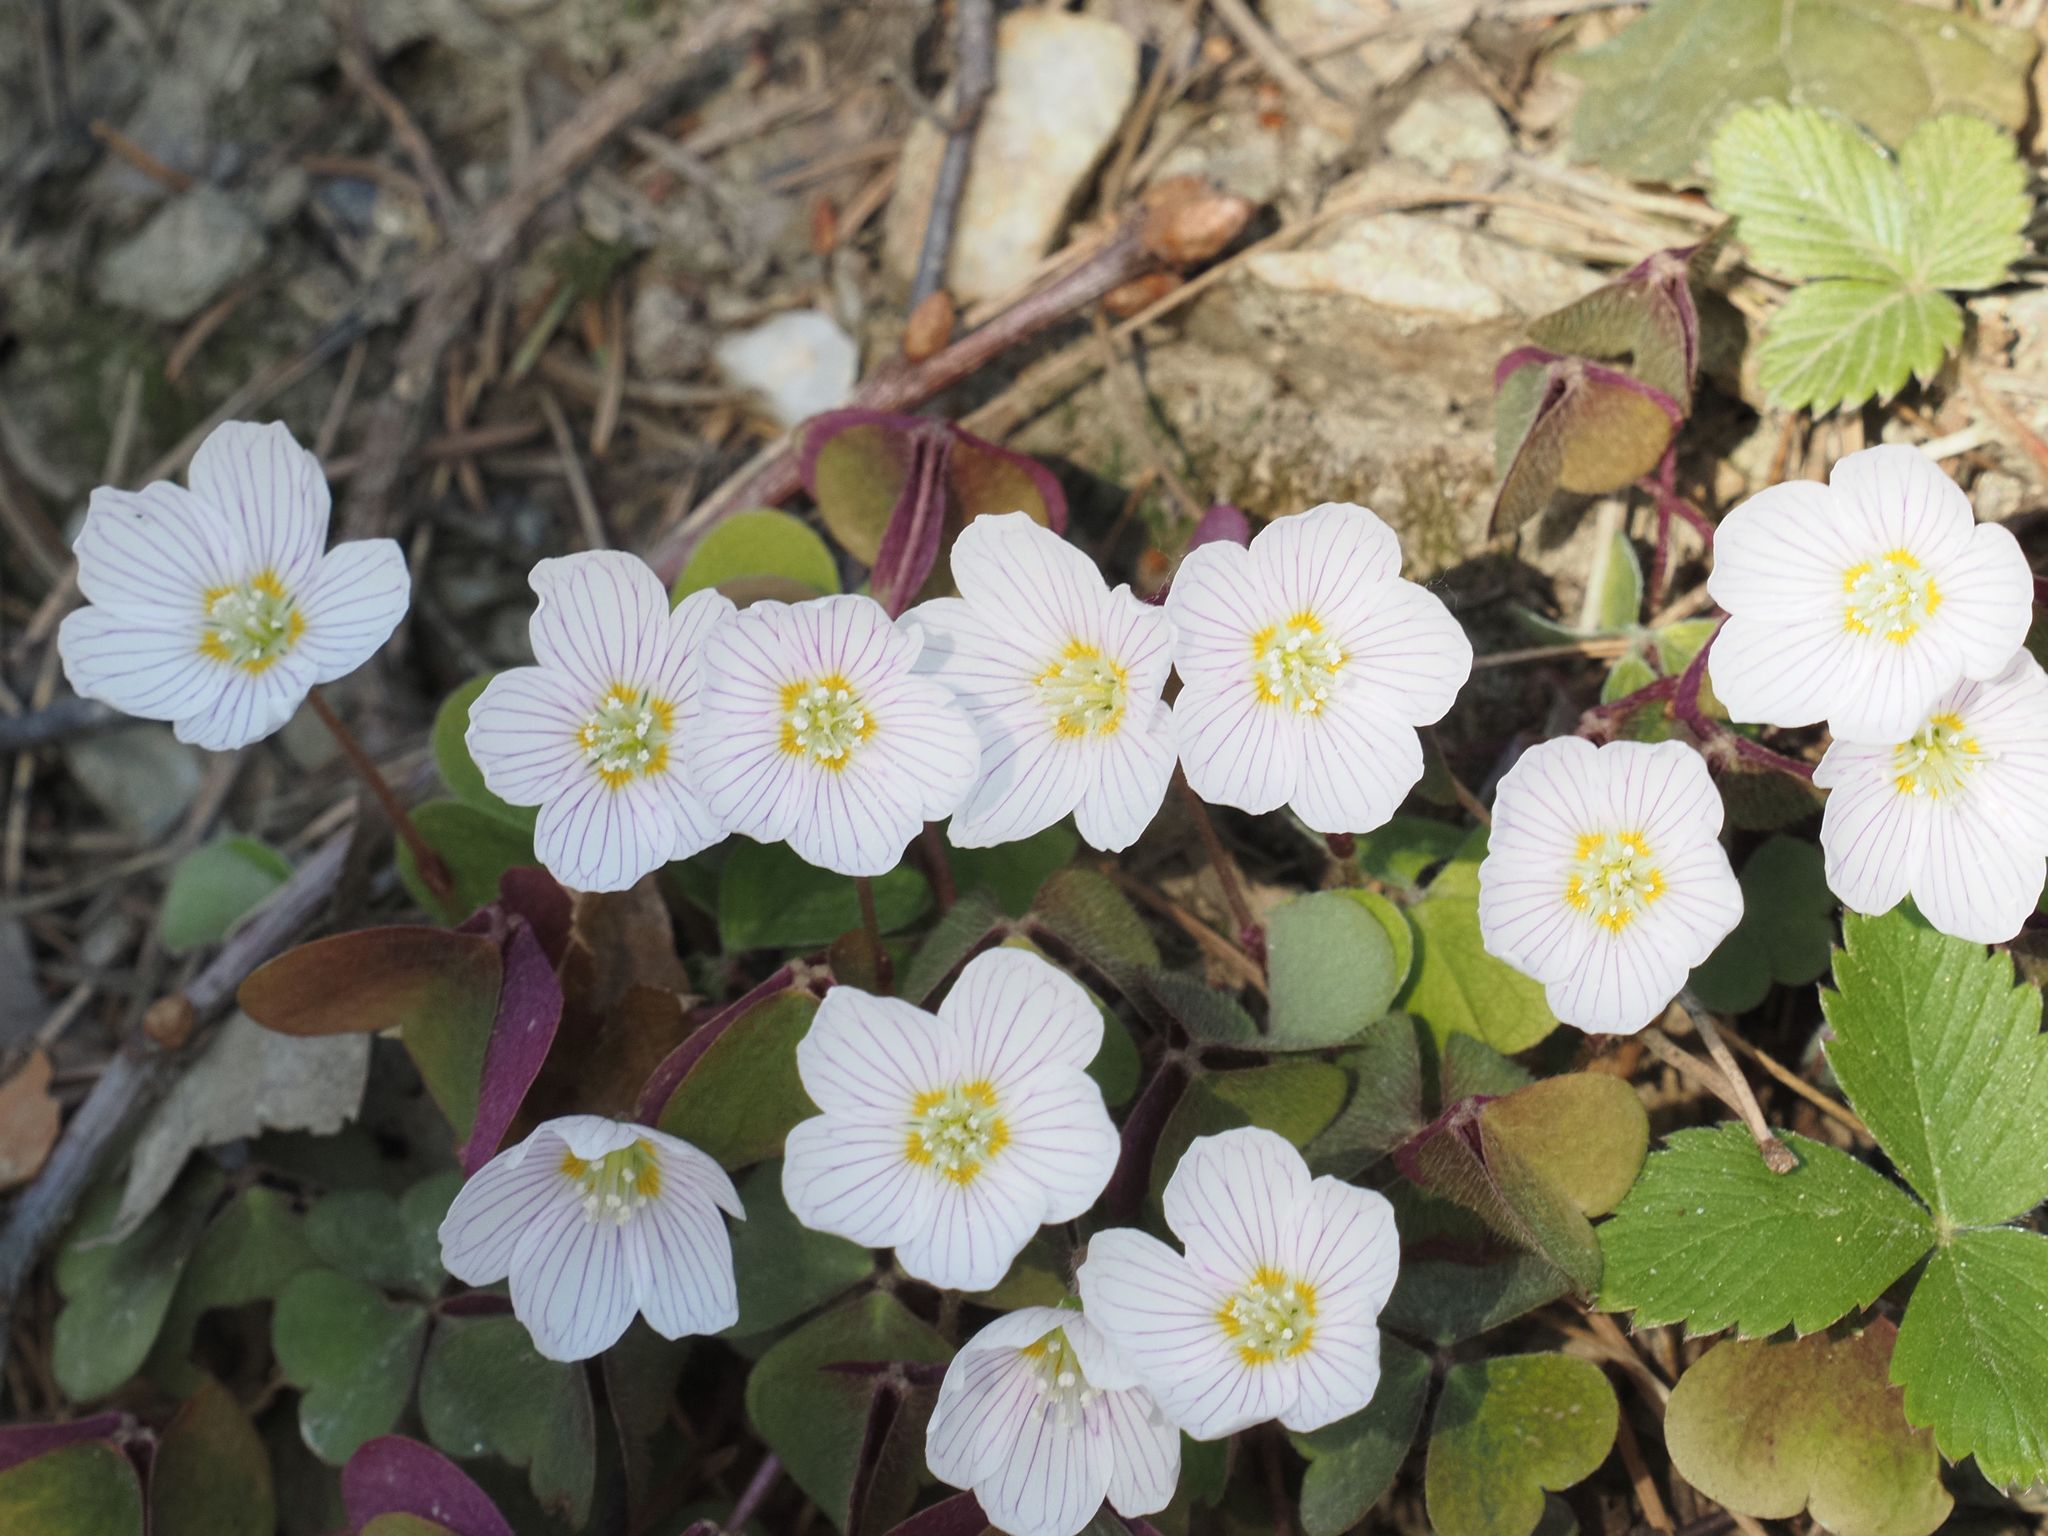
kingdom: Plantae
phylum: Tracheophyta
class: Magnoliopsida
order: Oxalidales
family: Oxalidaceae
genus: Oxalis
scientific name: Oxalis acetosella
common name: Wood-sorrel
